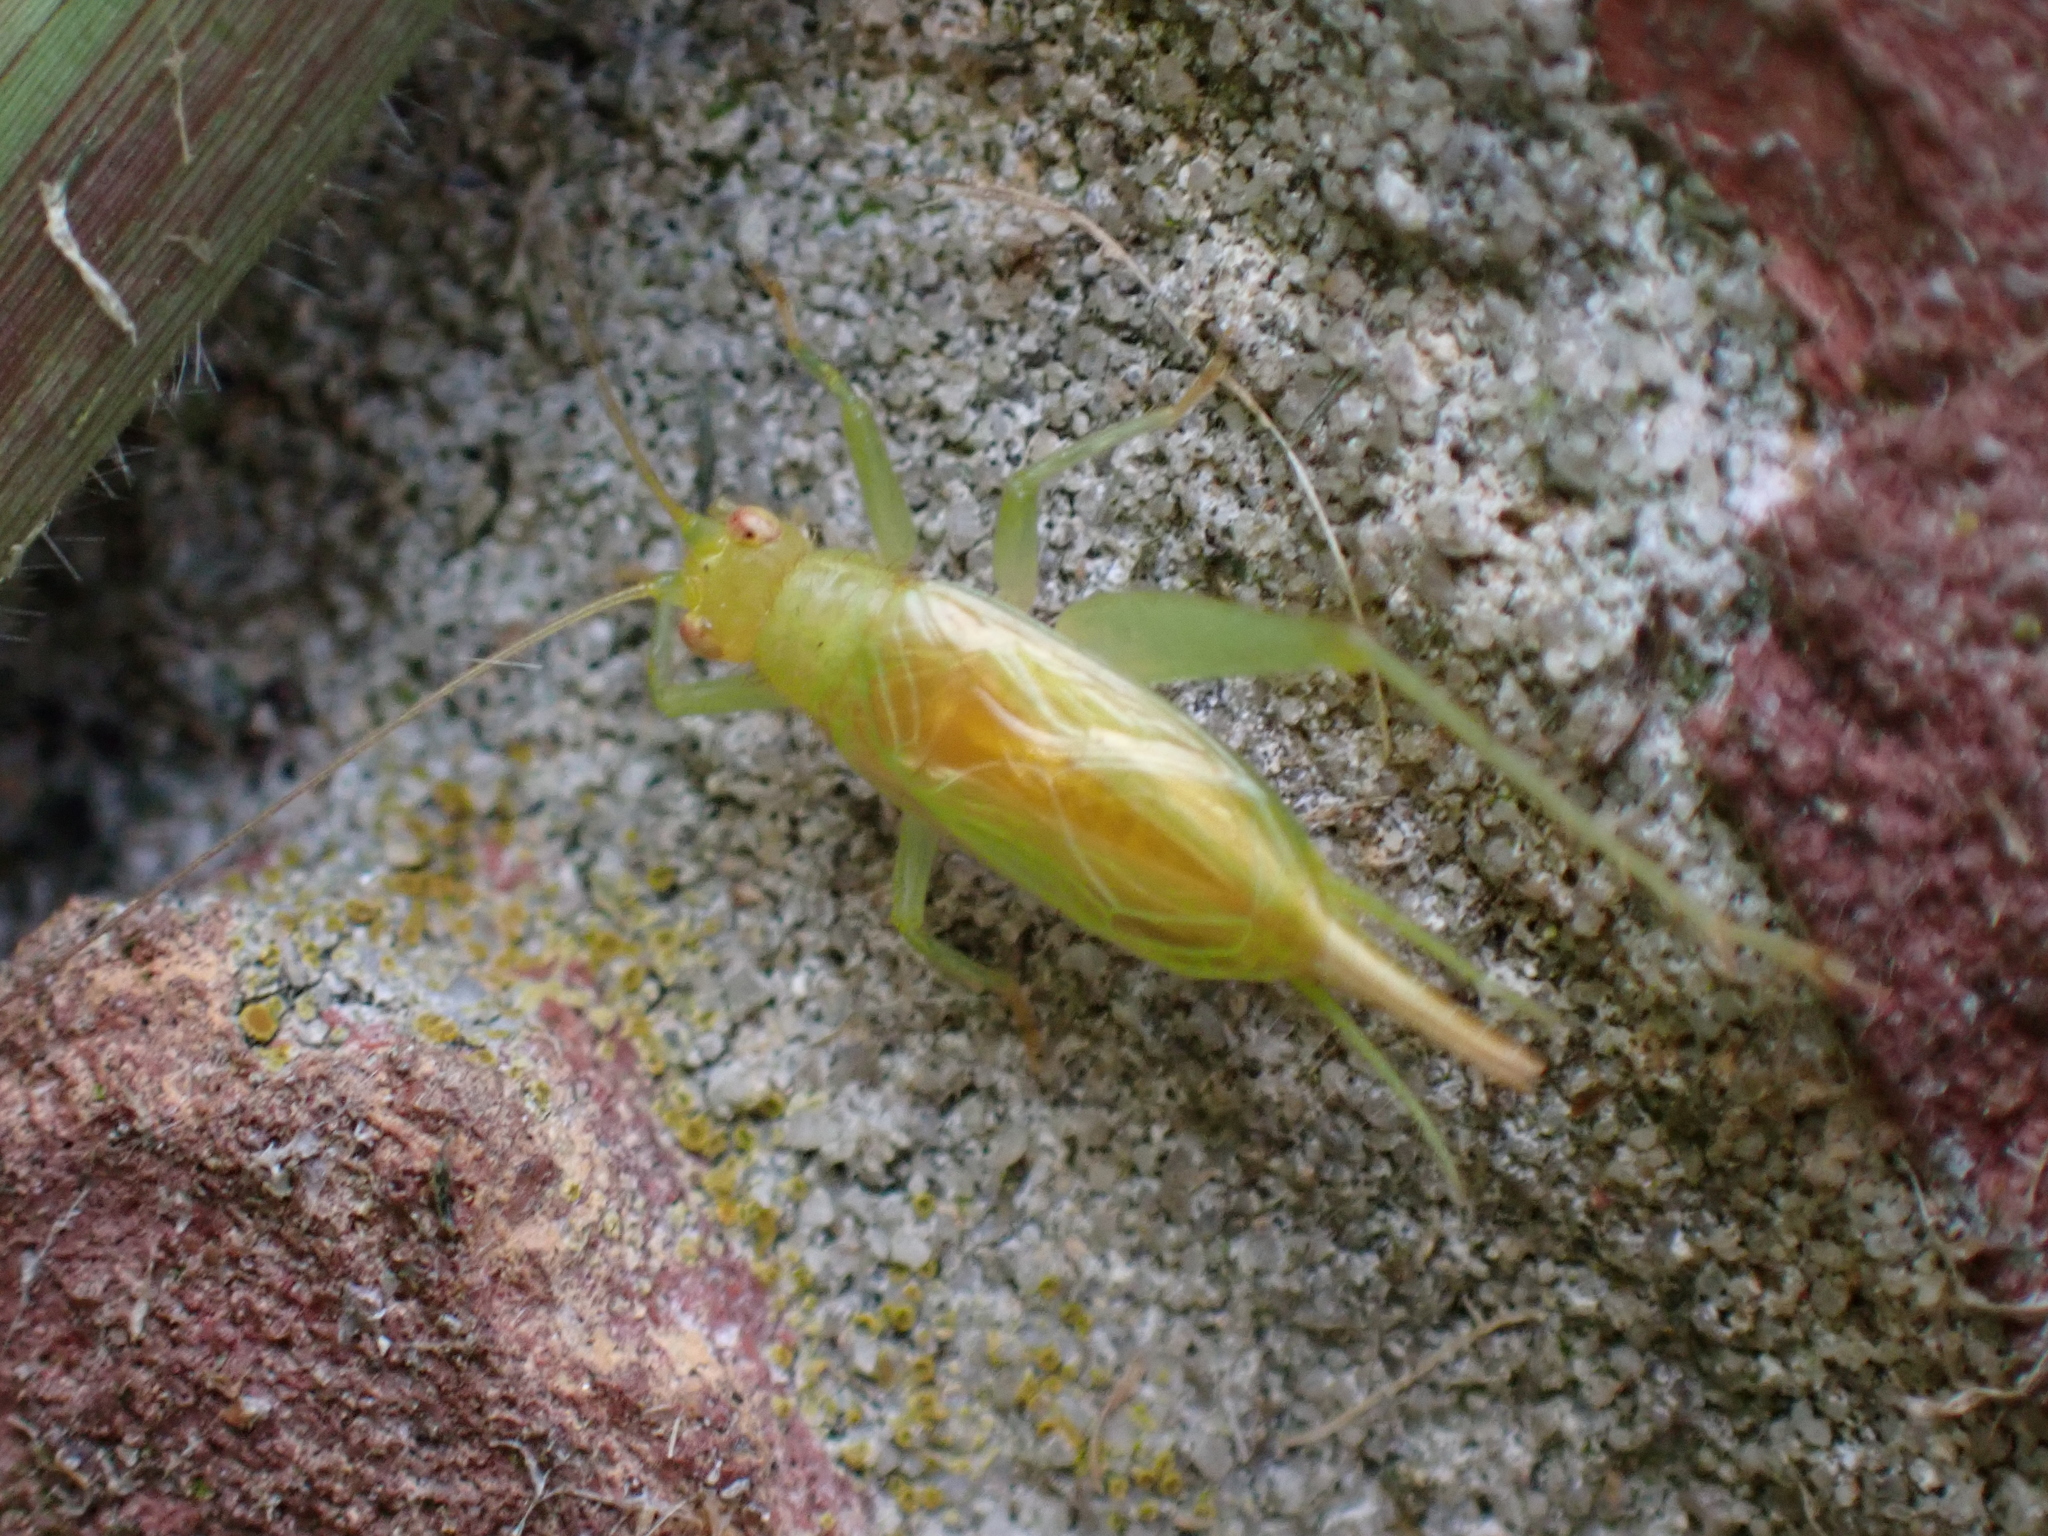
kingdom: Animalia
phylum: Arthropoda
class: Insecta
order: Orthoptera
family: Trigonidiidae
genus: Cyrtoxipha
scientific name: Cyrtoxipha columbiana
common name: Columbian trig
